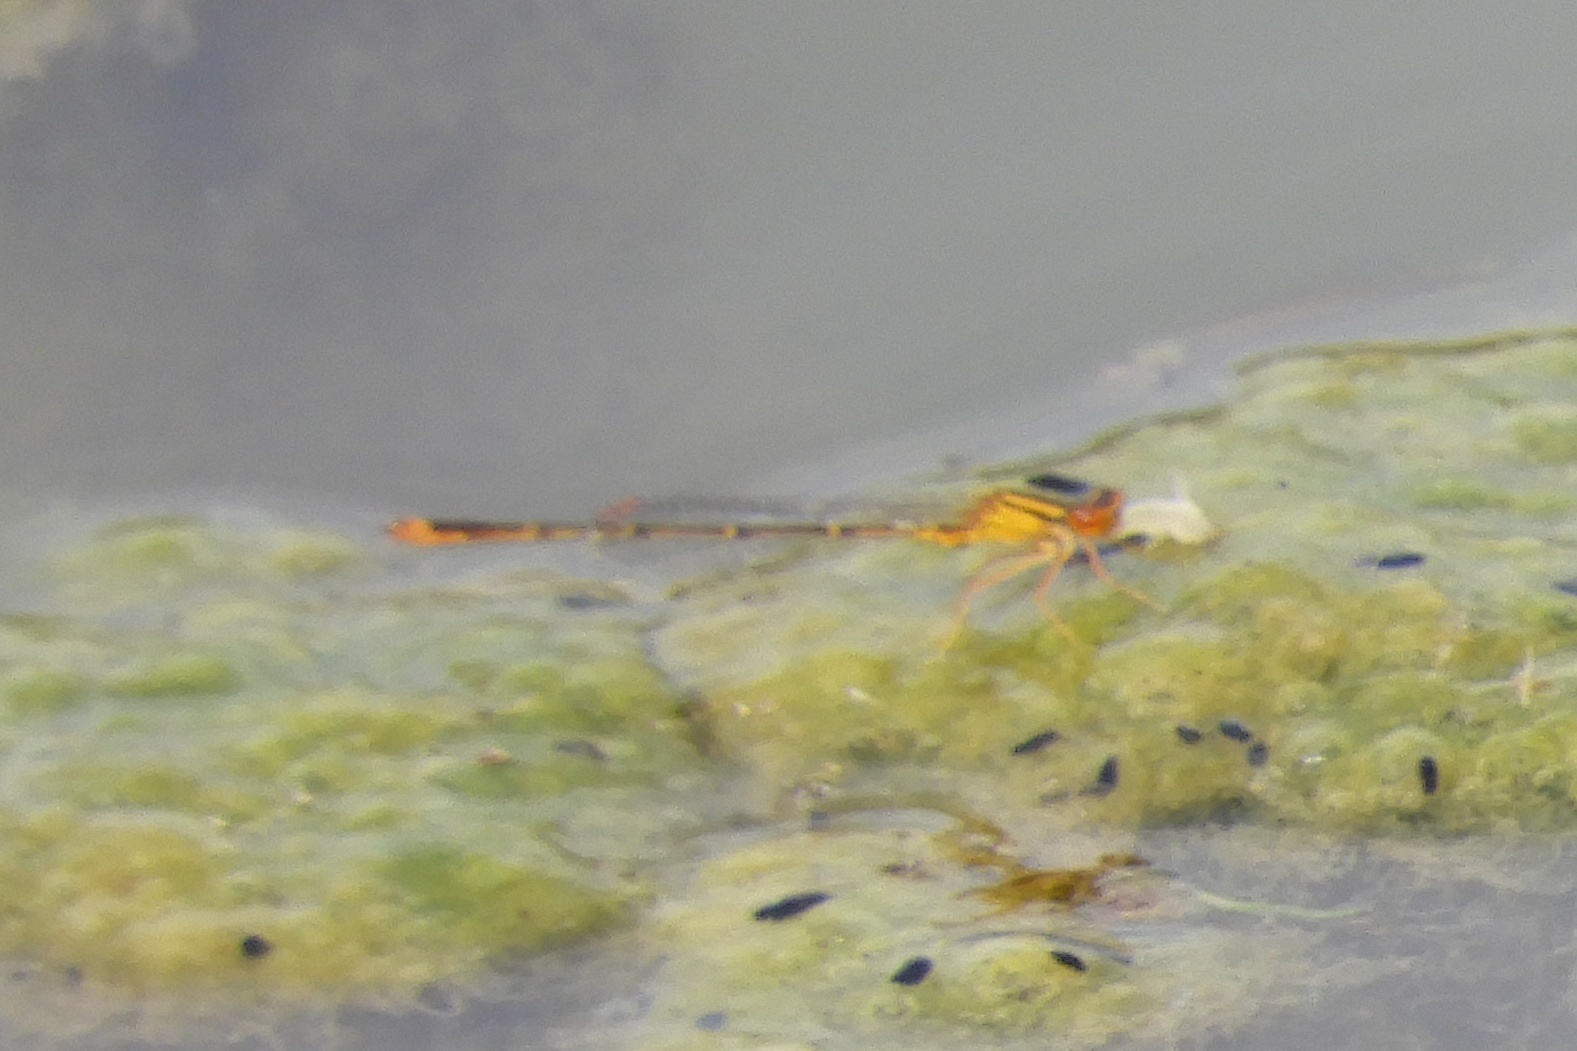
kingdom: Animalia
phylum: Arthropoda
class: Insecta
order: Odonata
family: Coenagrionidae
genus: Enallagma
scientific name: Enallagma signatum
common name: Orange bluet
